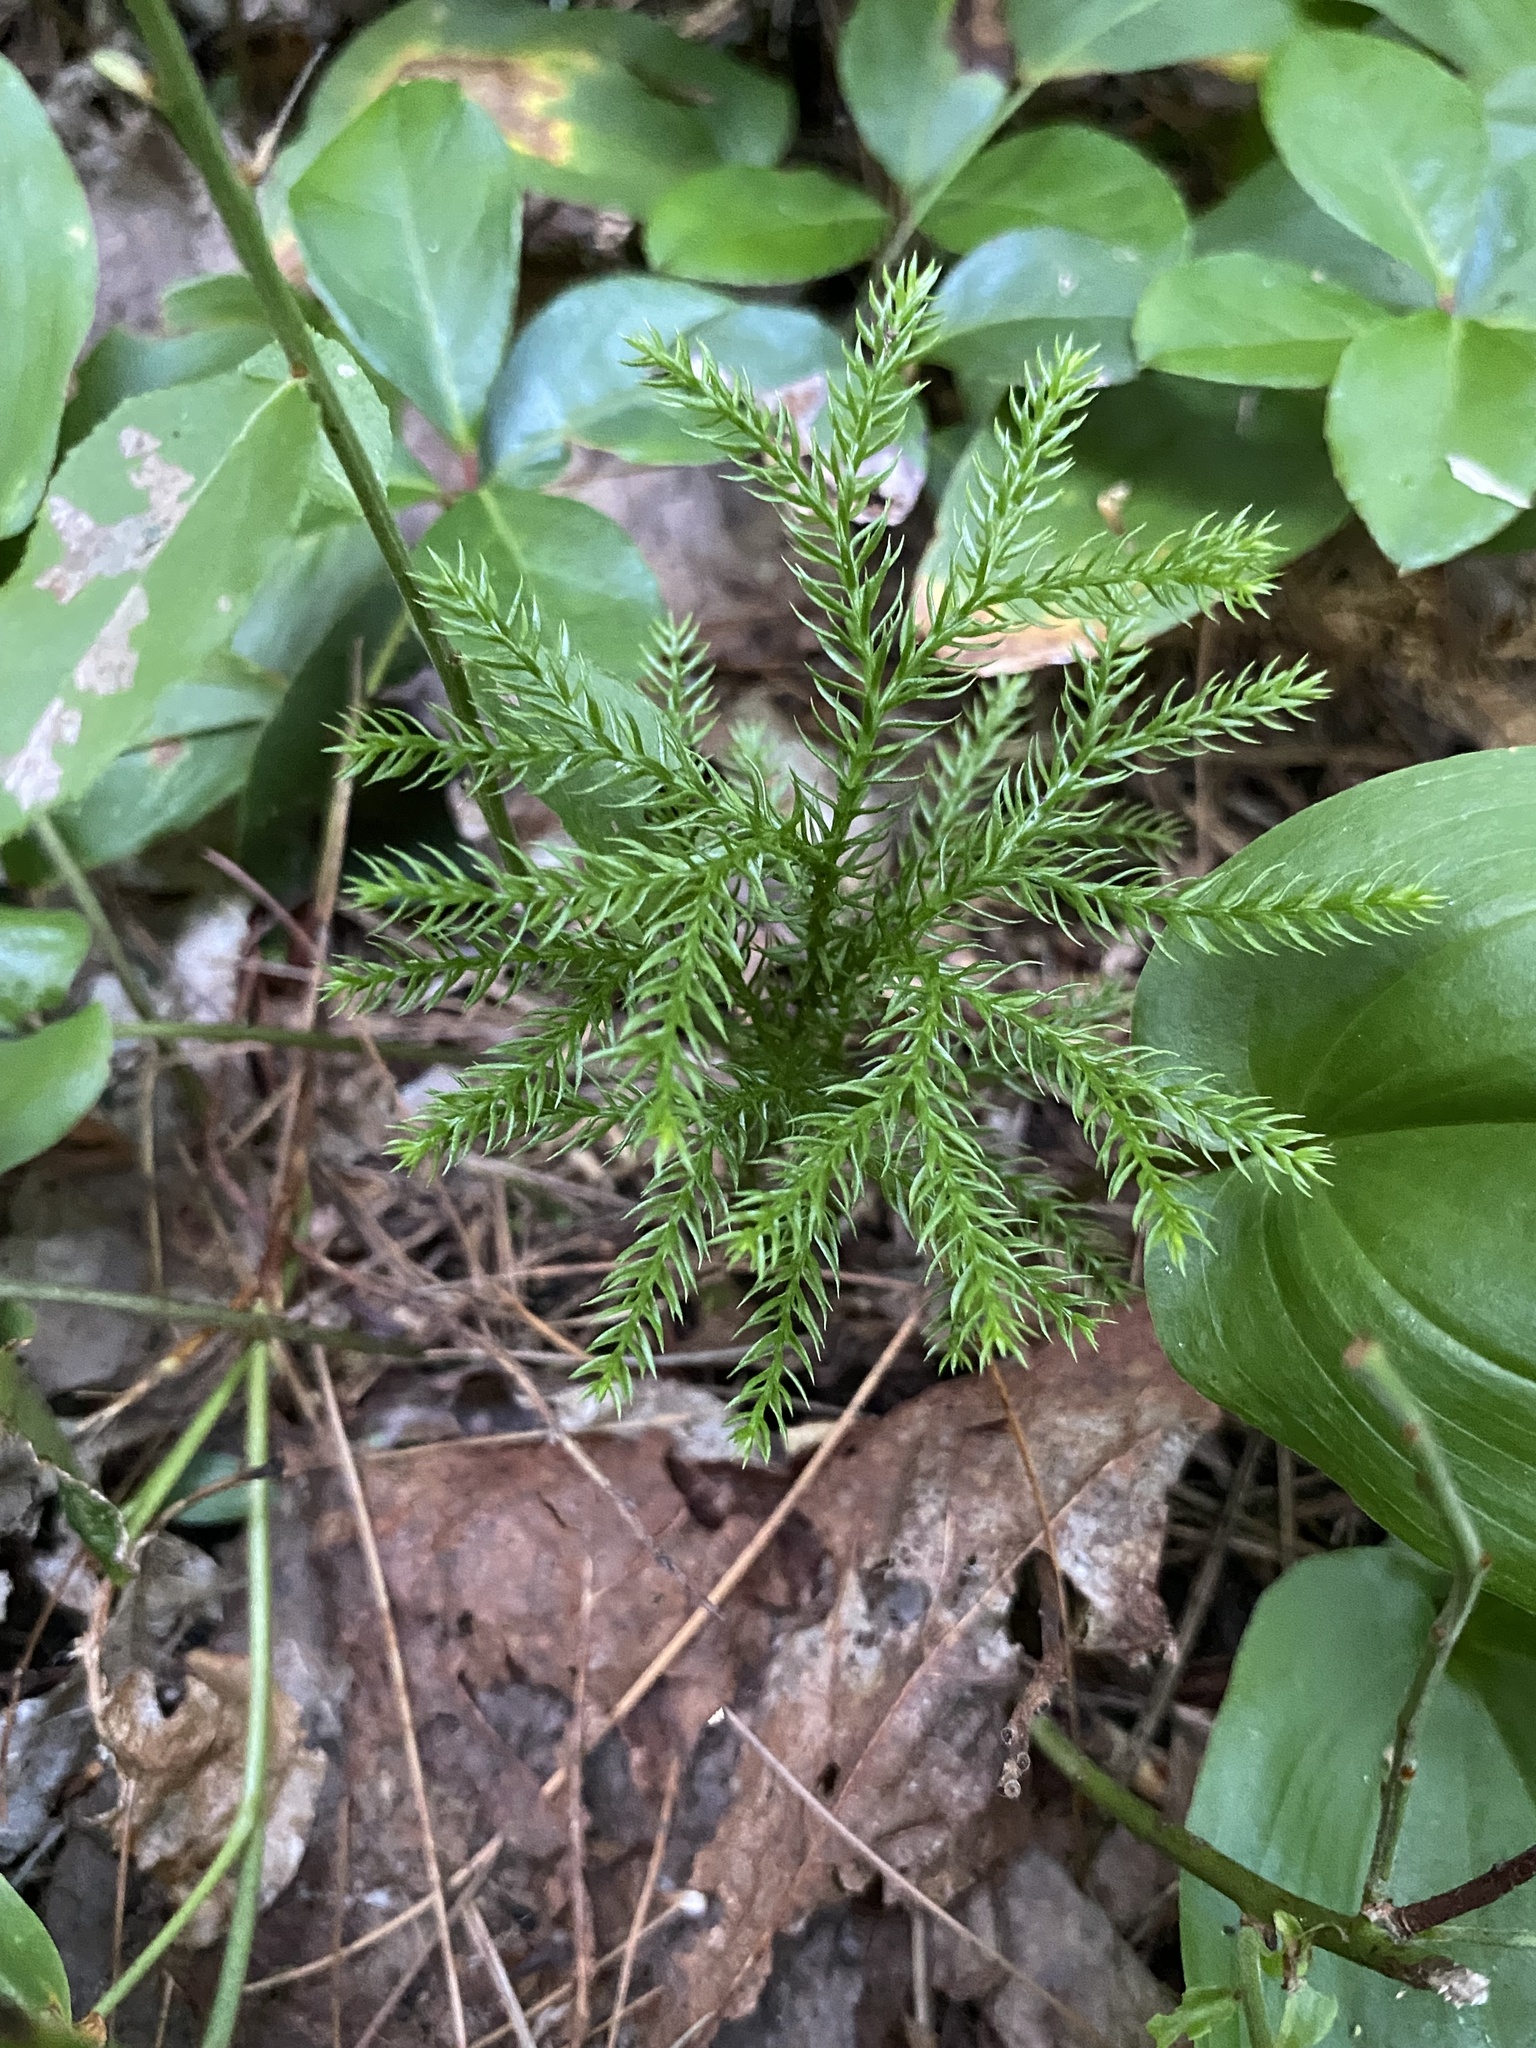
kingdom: Plantae
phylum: Tracheophyta
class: Lycopodiopsida
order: Lycopodiales
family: Lycopodiaceae
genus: Dendrolycopodium
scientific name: Dendrolycopodium dendroideum
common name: Northern tree-clubmoss
